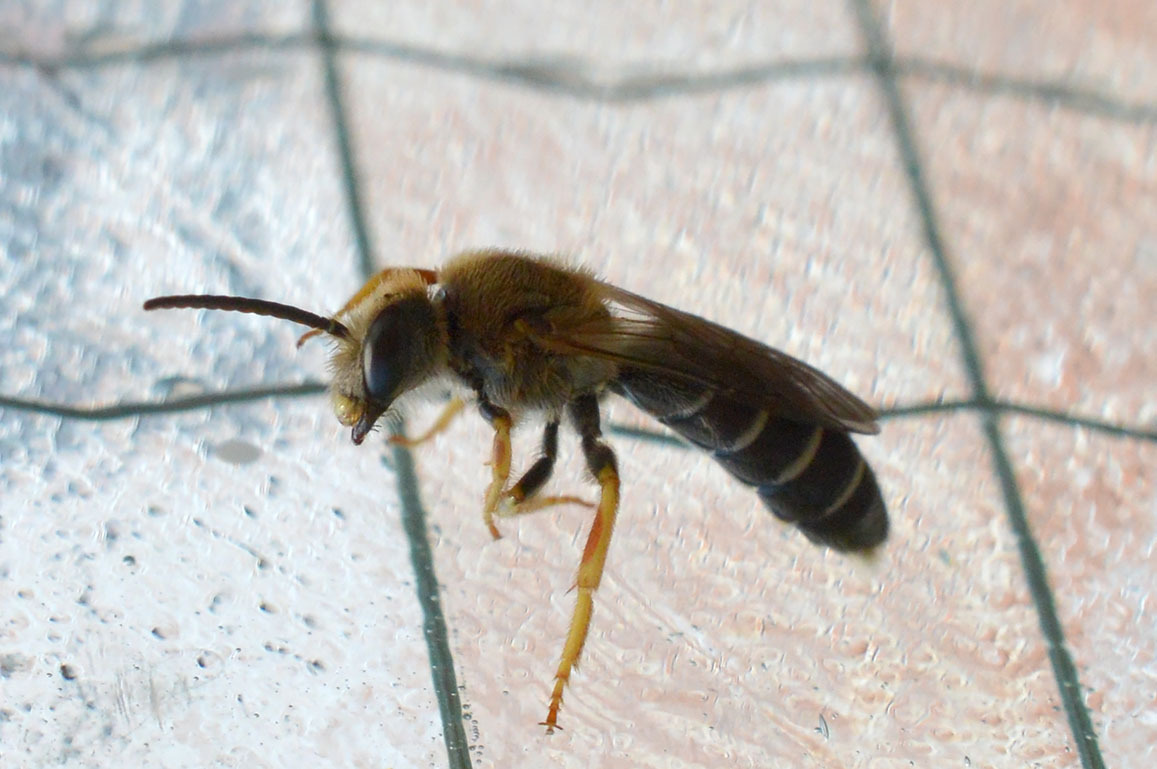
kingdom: Animalia
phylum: Arthropoda
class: Insecta
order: Hymenoptera
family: Halictidae
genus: Halictus
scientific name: Halictus rubicundus
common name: Orange-legged furrow bee
